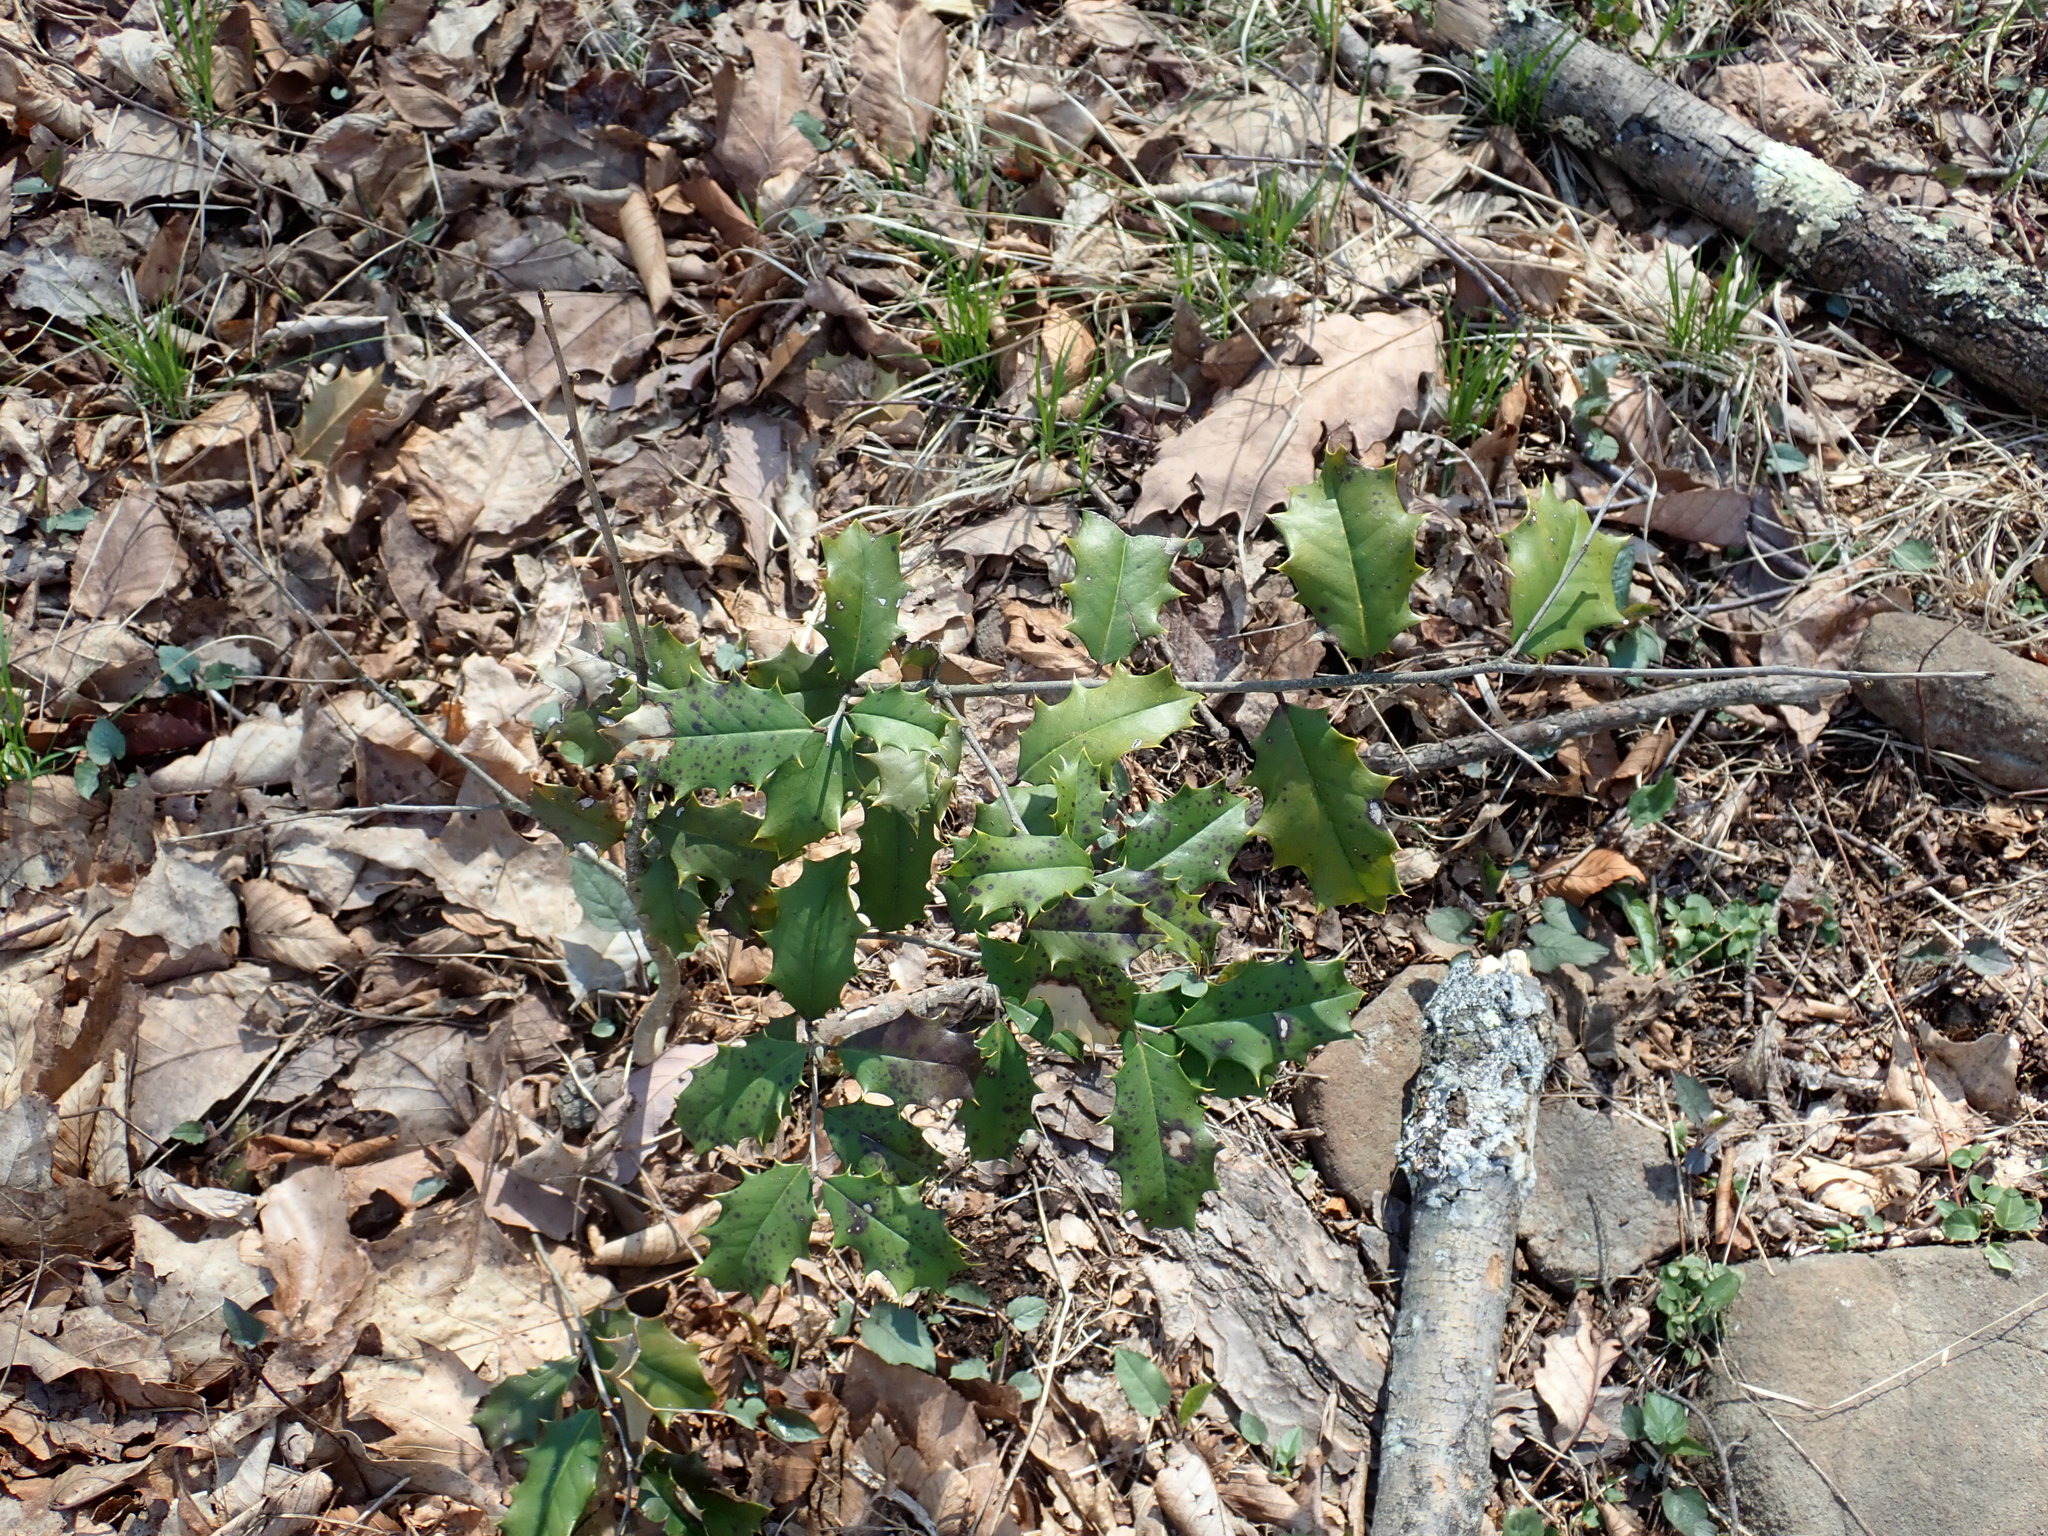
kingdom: Plantae
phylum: Tracheophyta
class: Magnoliopsida
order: Aquifoliales
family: Aquifoliaceae
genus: Ilex
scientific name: Ilex opaca
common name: American holly
